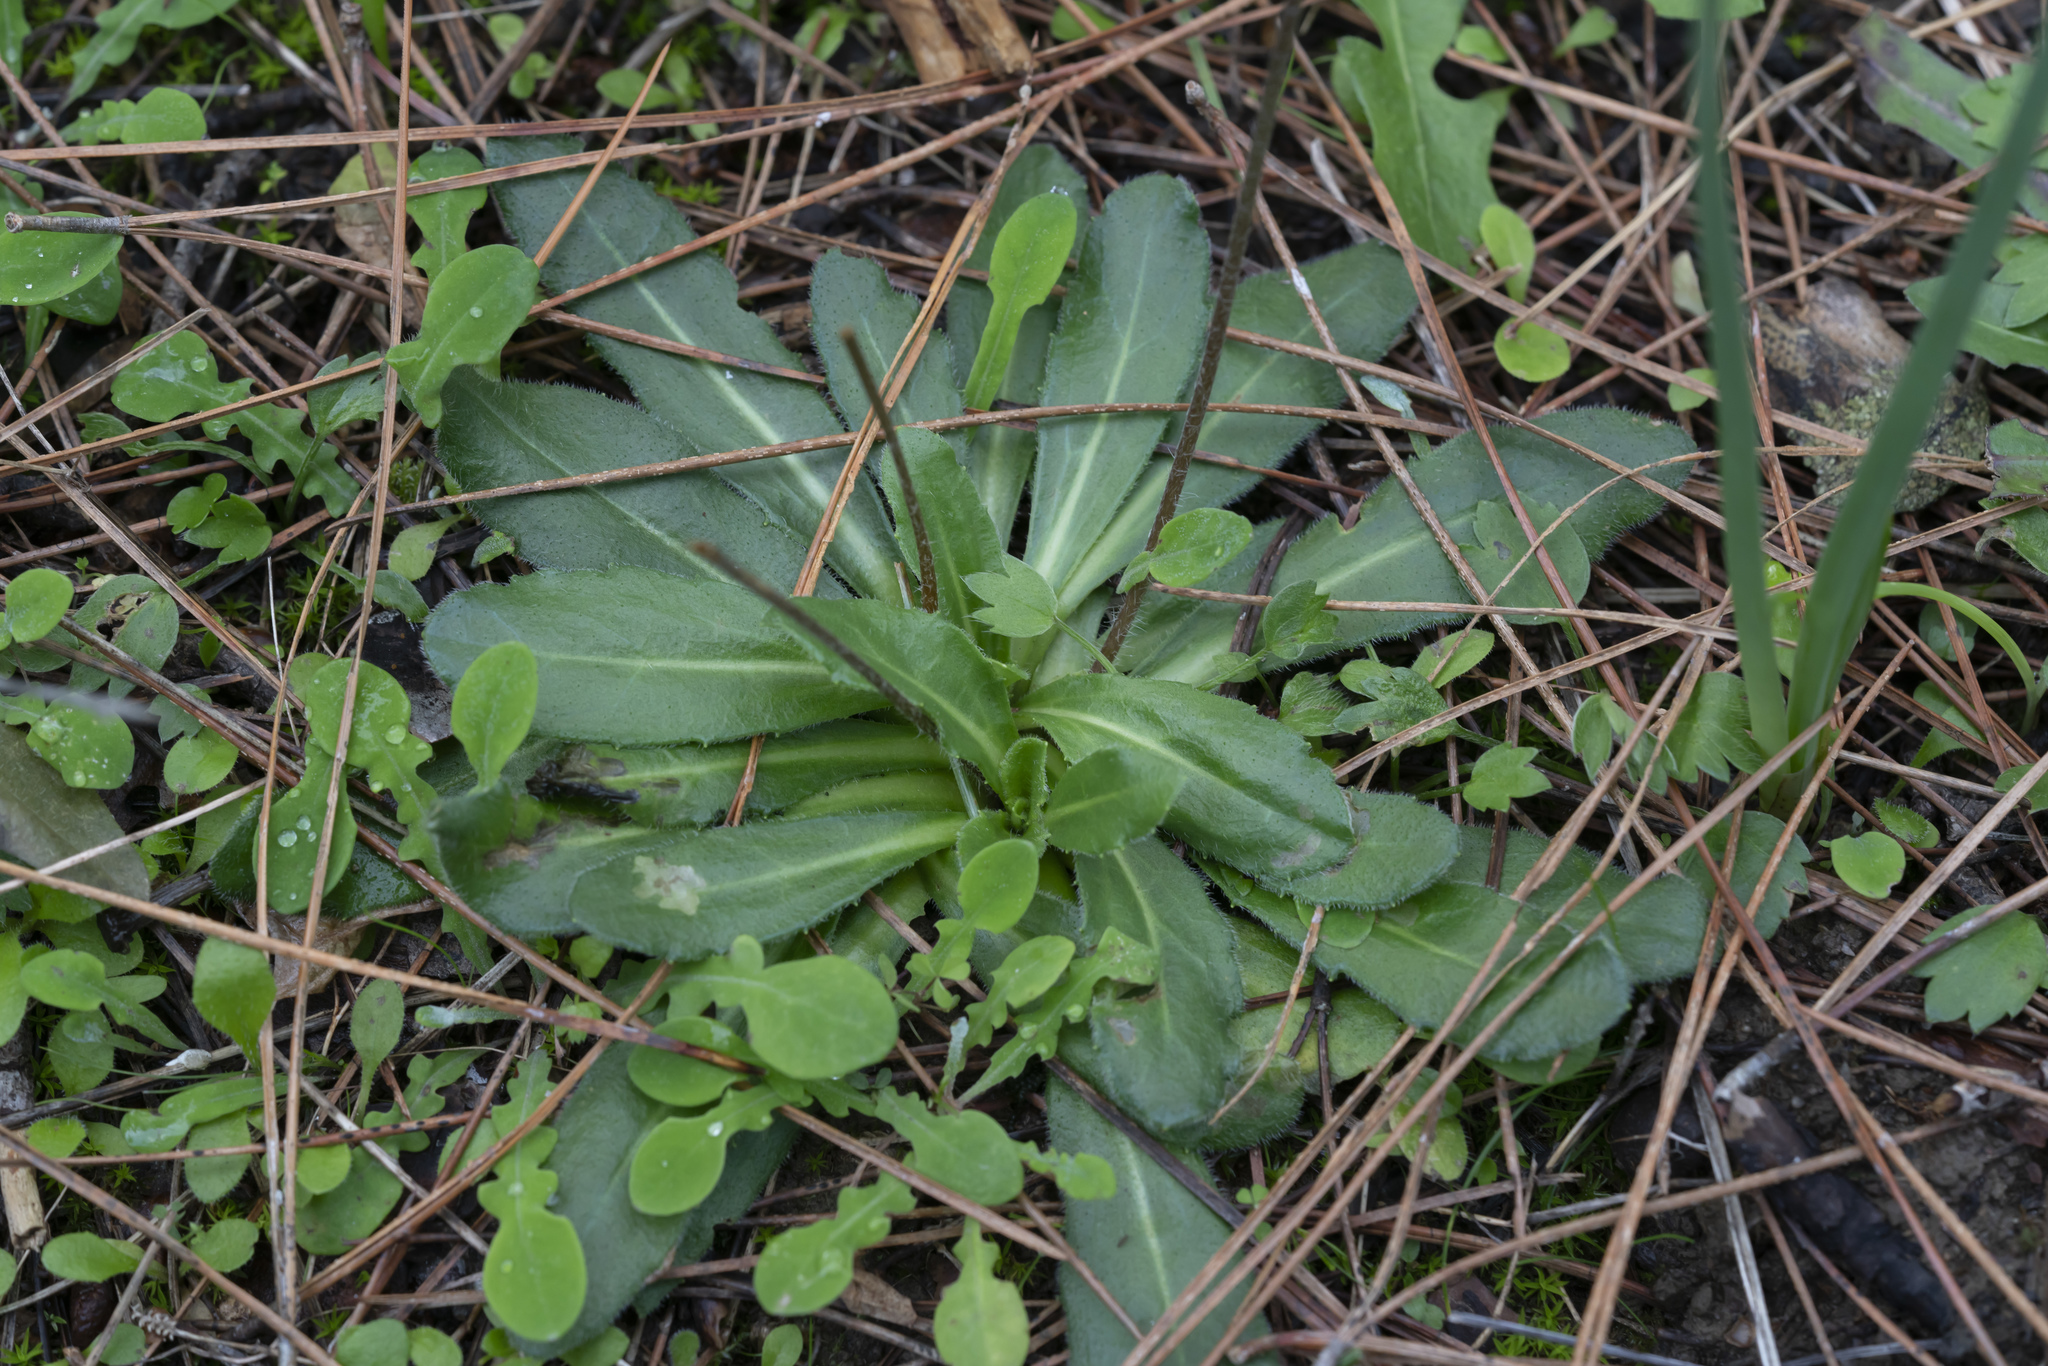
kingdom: Plantae
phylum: Tracheophyta
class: Magnoliopsida
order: Asterales
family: Asteraceae
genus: Bellis
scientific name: Bellis sylvestris
